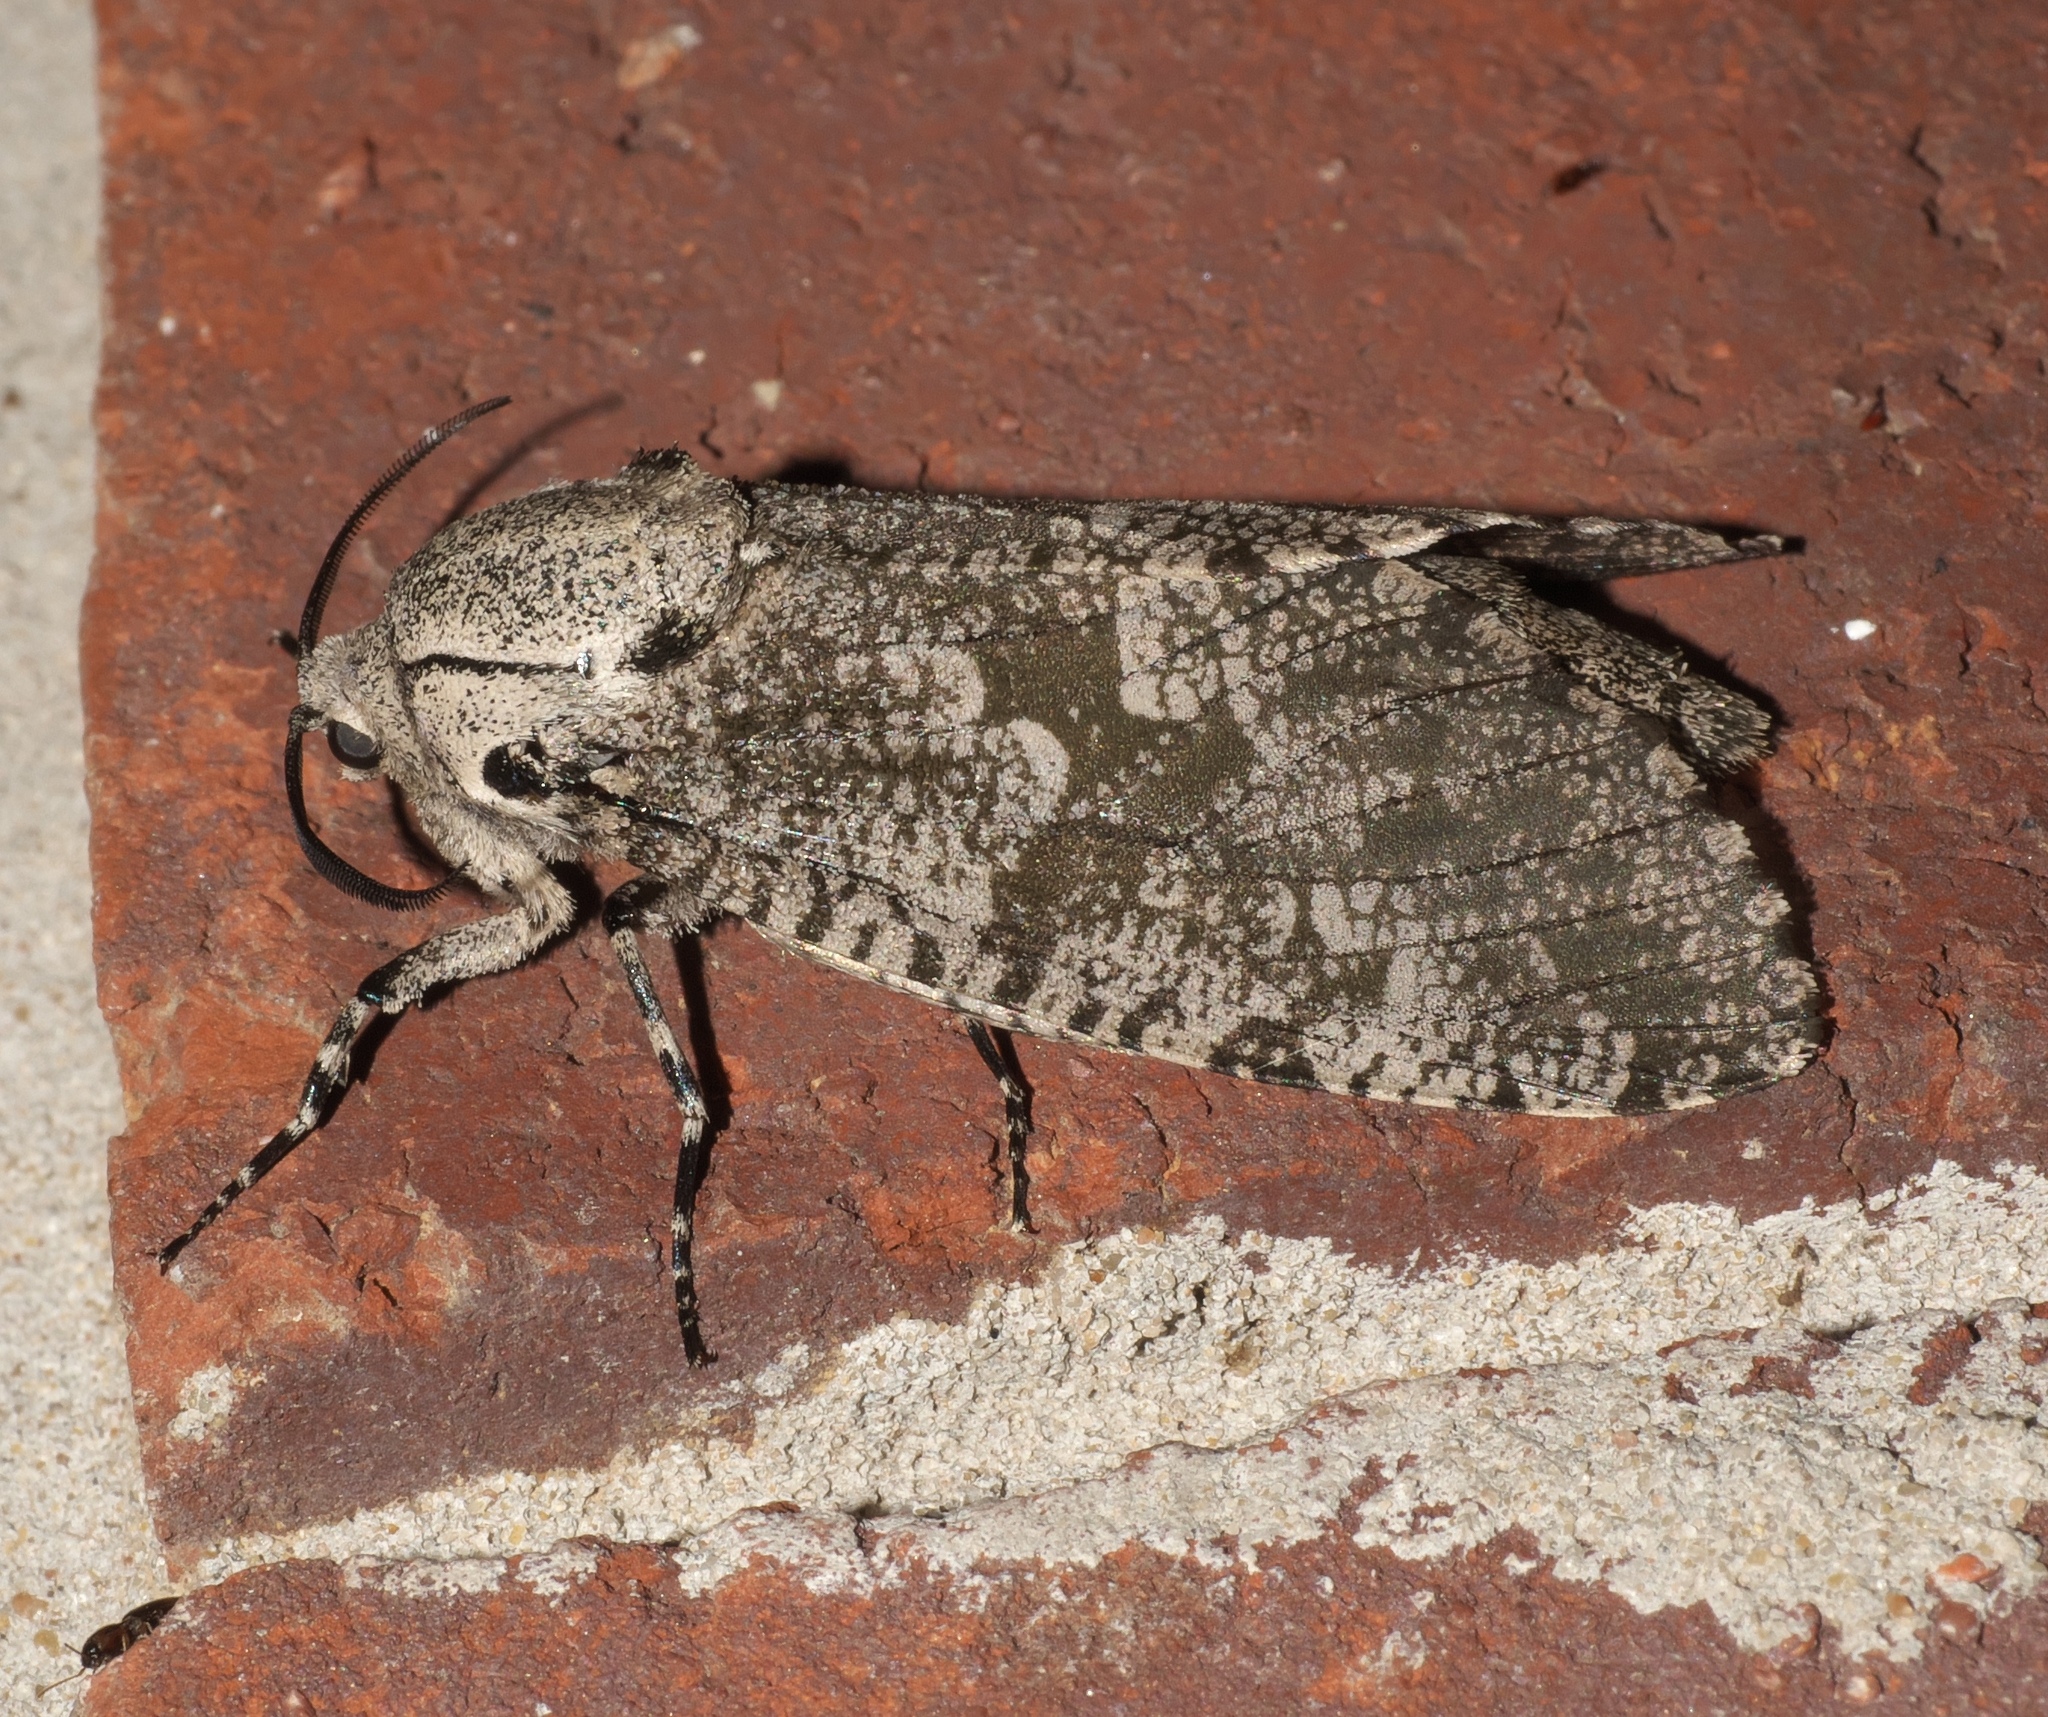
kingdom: Animalia
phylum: Arthropoda
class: Insecta
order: Lepidoptera
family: Cossidae
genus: Prionoxystus
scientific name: Prionoxystus robiniae
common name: Carpenterworm
